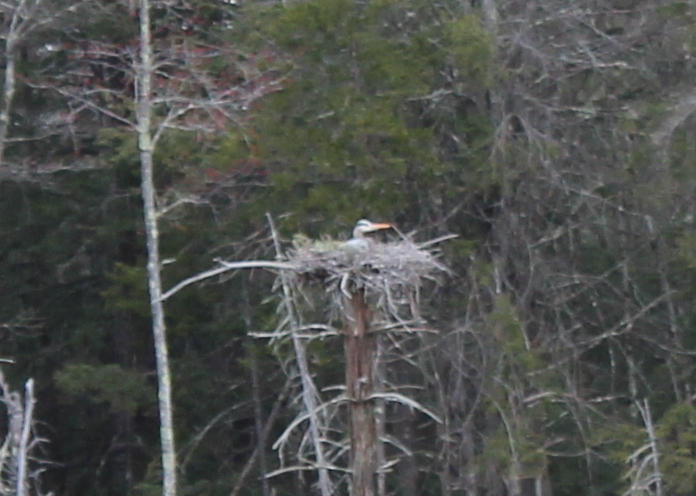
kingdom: Animalia
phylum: Chordata
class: Aves
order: Pelecaniformes
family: Ardeidae
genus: Ardea
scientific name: Ardea herodias
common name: Great blue heron
